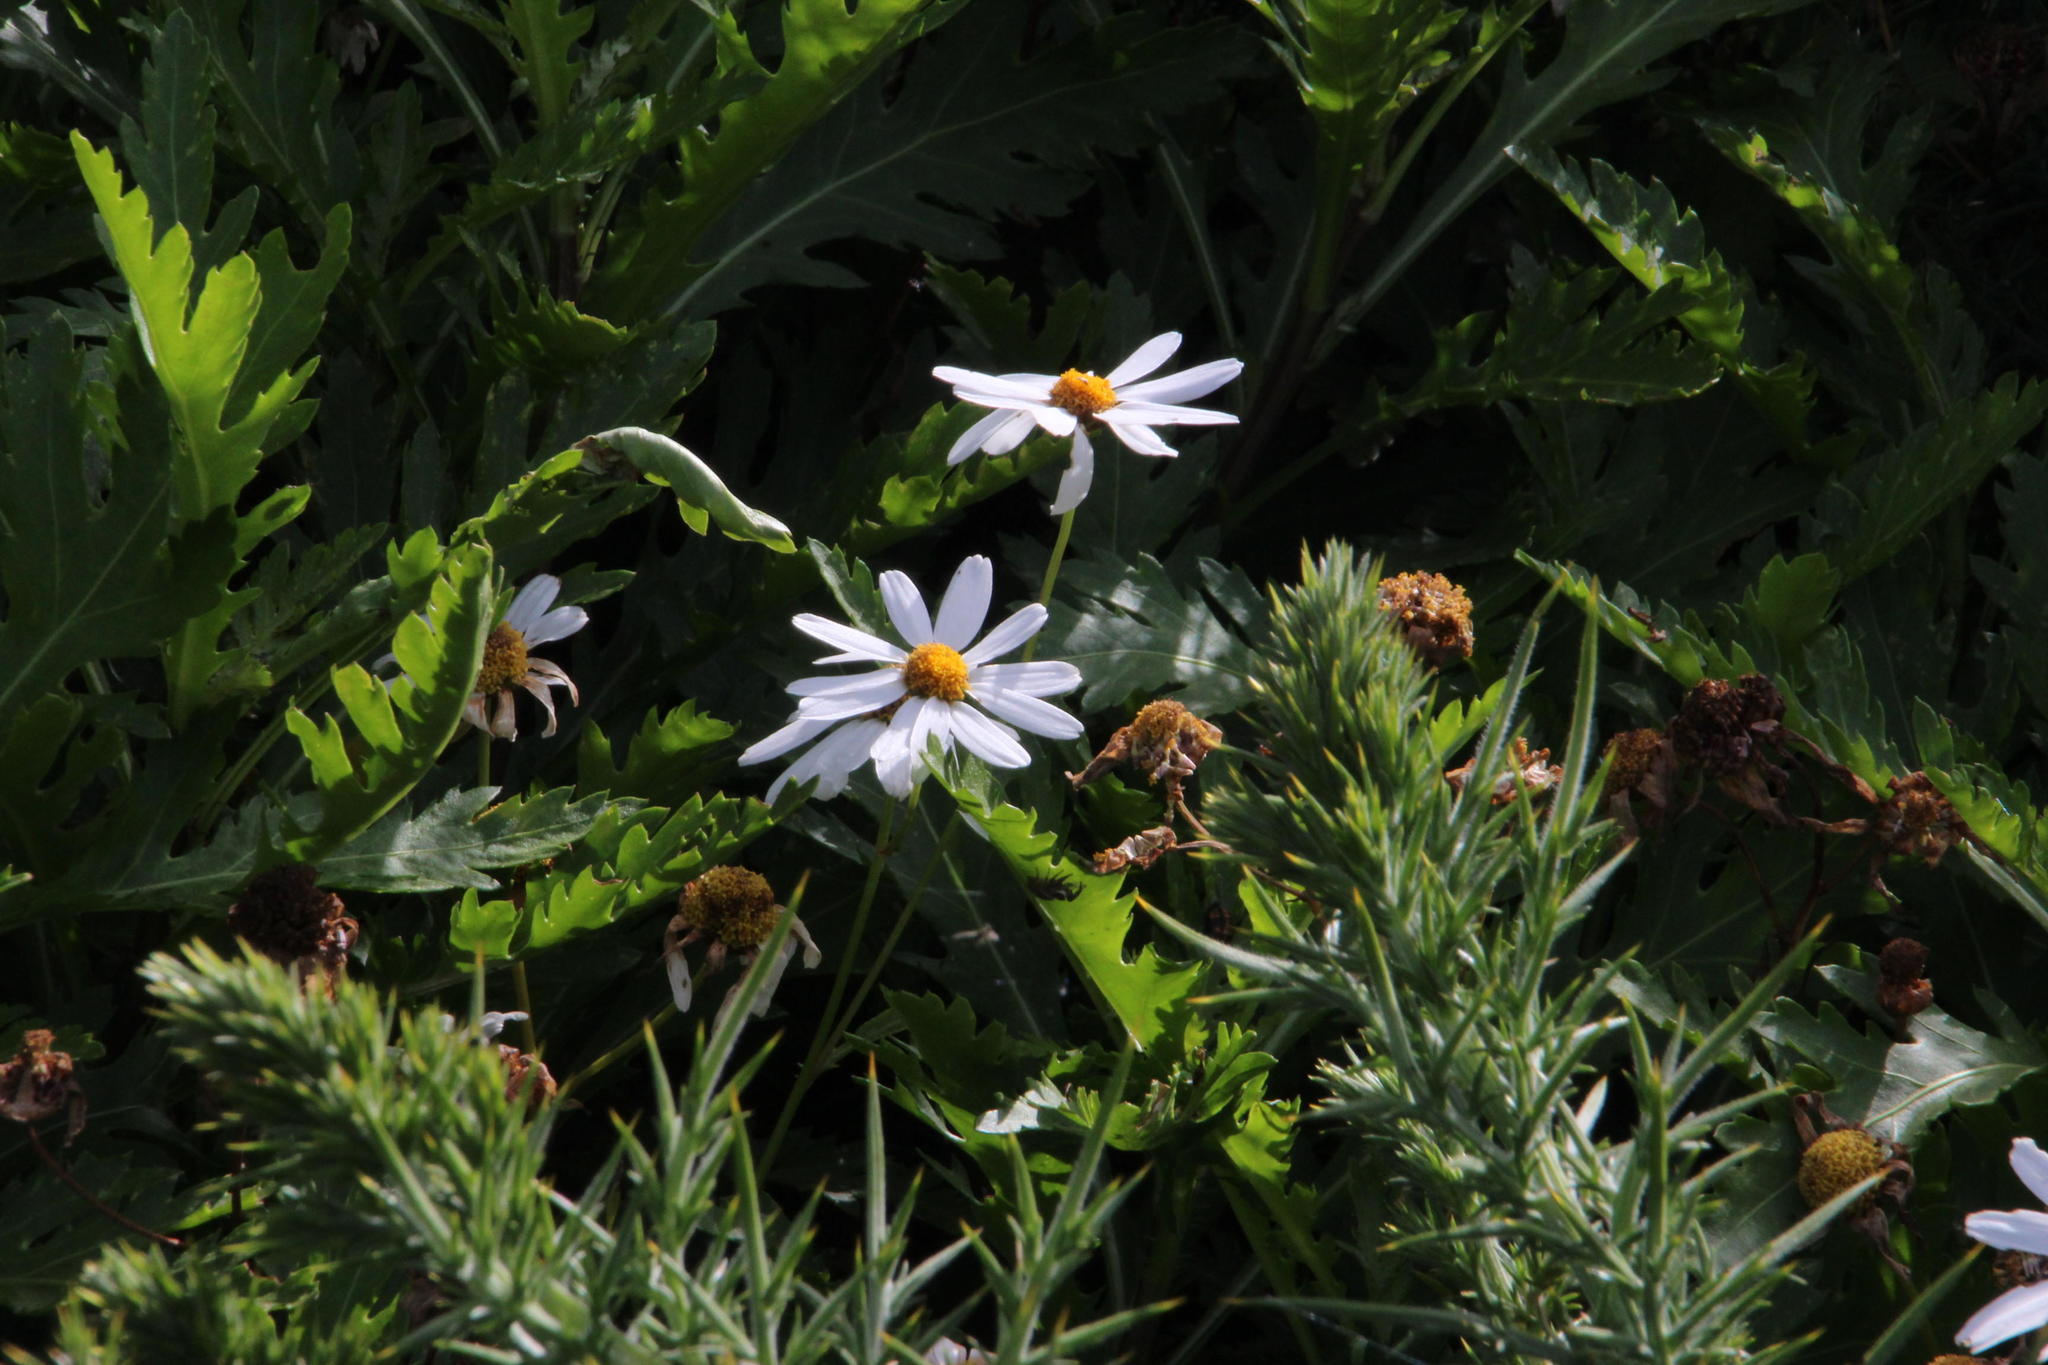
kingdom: Plantae
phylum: Tracheophyta
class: Magnoliopsida
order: Asterales
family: Asteraceae
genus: Argyranthemum
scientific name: Argyranthemum pinnatifidum
